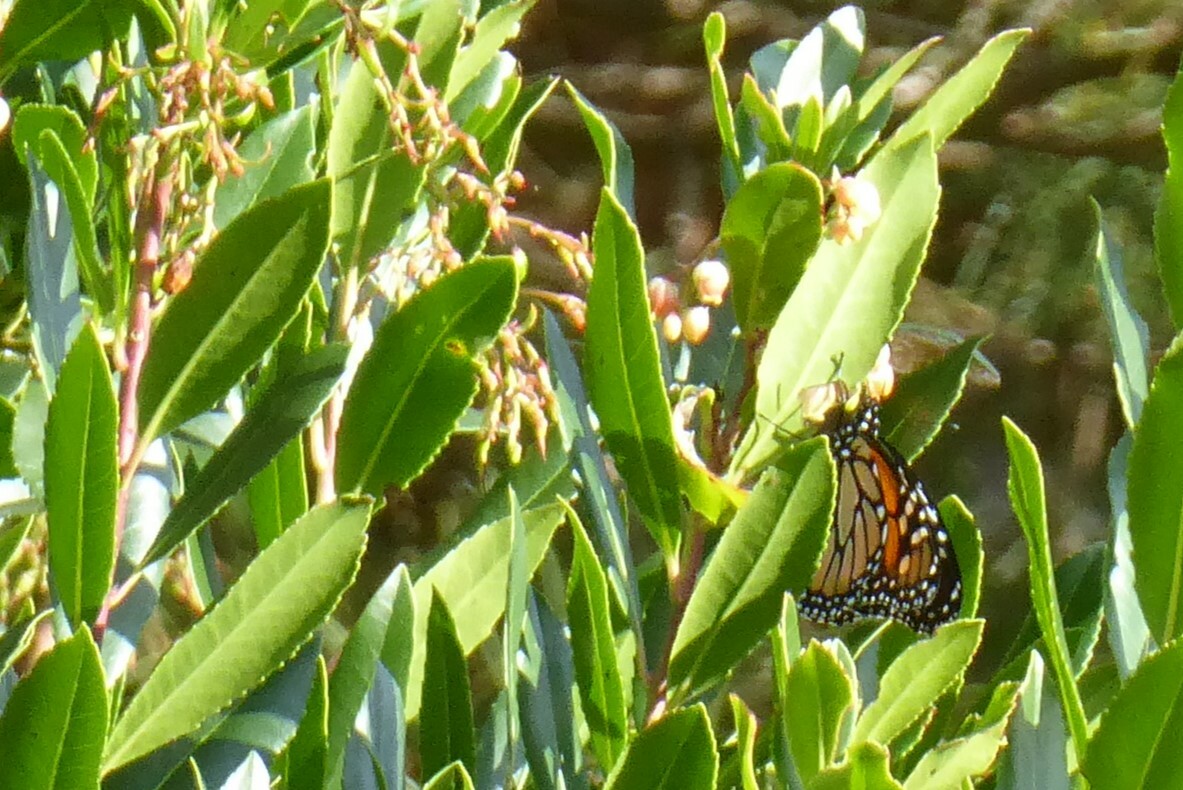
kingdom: Animalia
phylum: Arthropoda
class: Insecta
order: Lepidoptera
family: Nymphalidae
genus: Danaus
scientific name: Danaus plexippus
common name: Monarch
